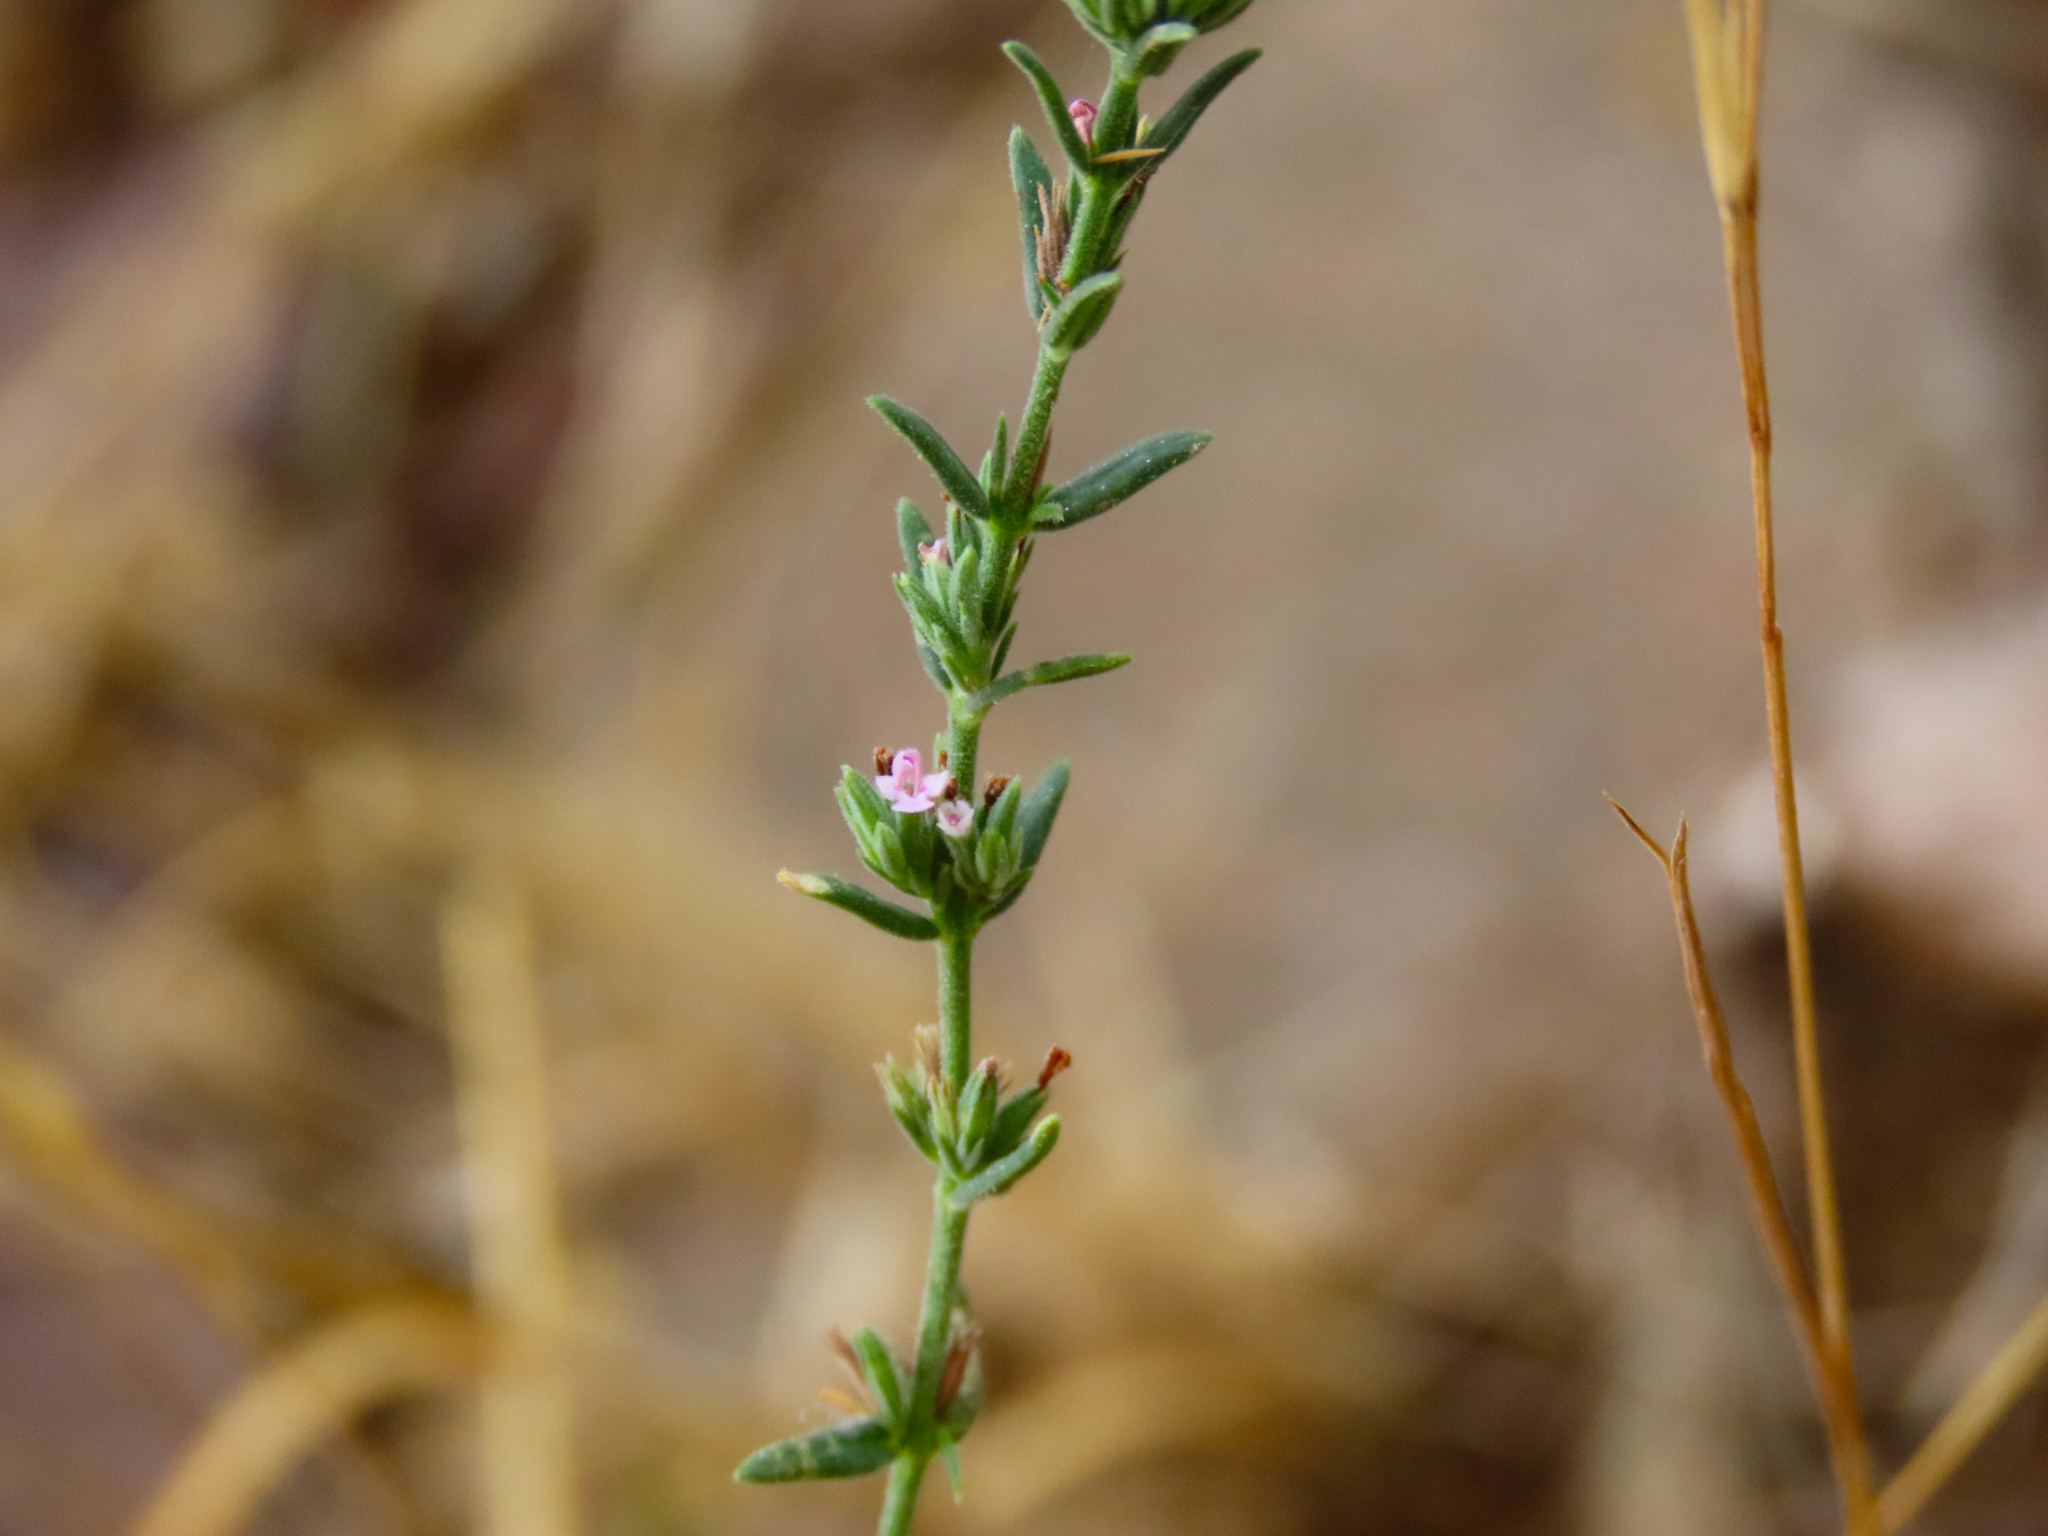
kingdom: Plantae
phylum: Tracheophyta
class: Magnoliopsida
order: Lamiales
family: Lamiaceae
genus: Micromeria
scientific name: Micromeria juliana
